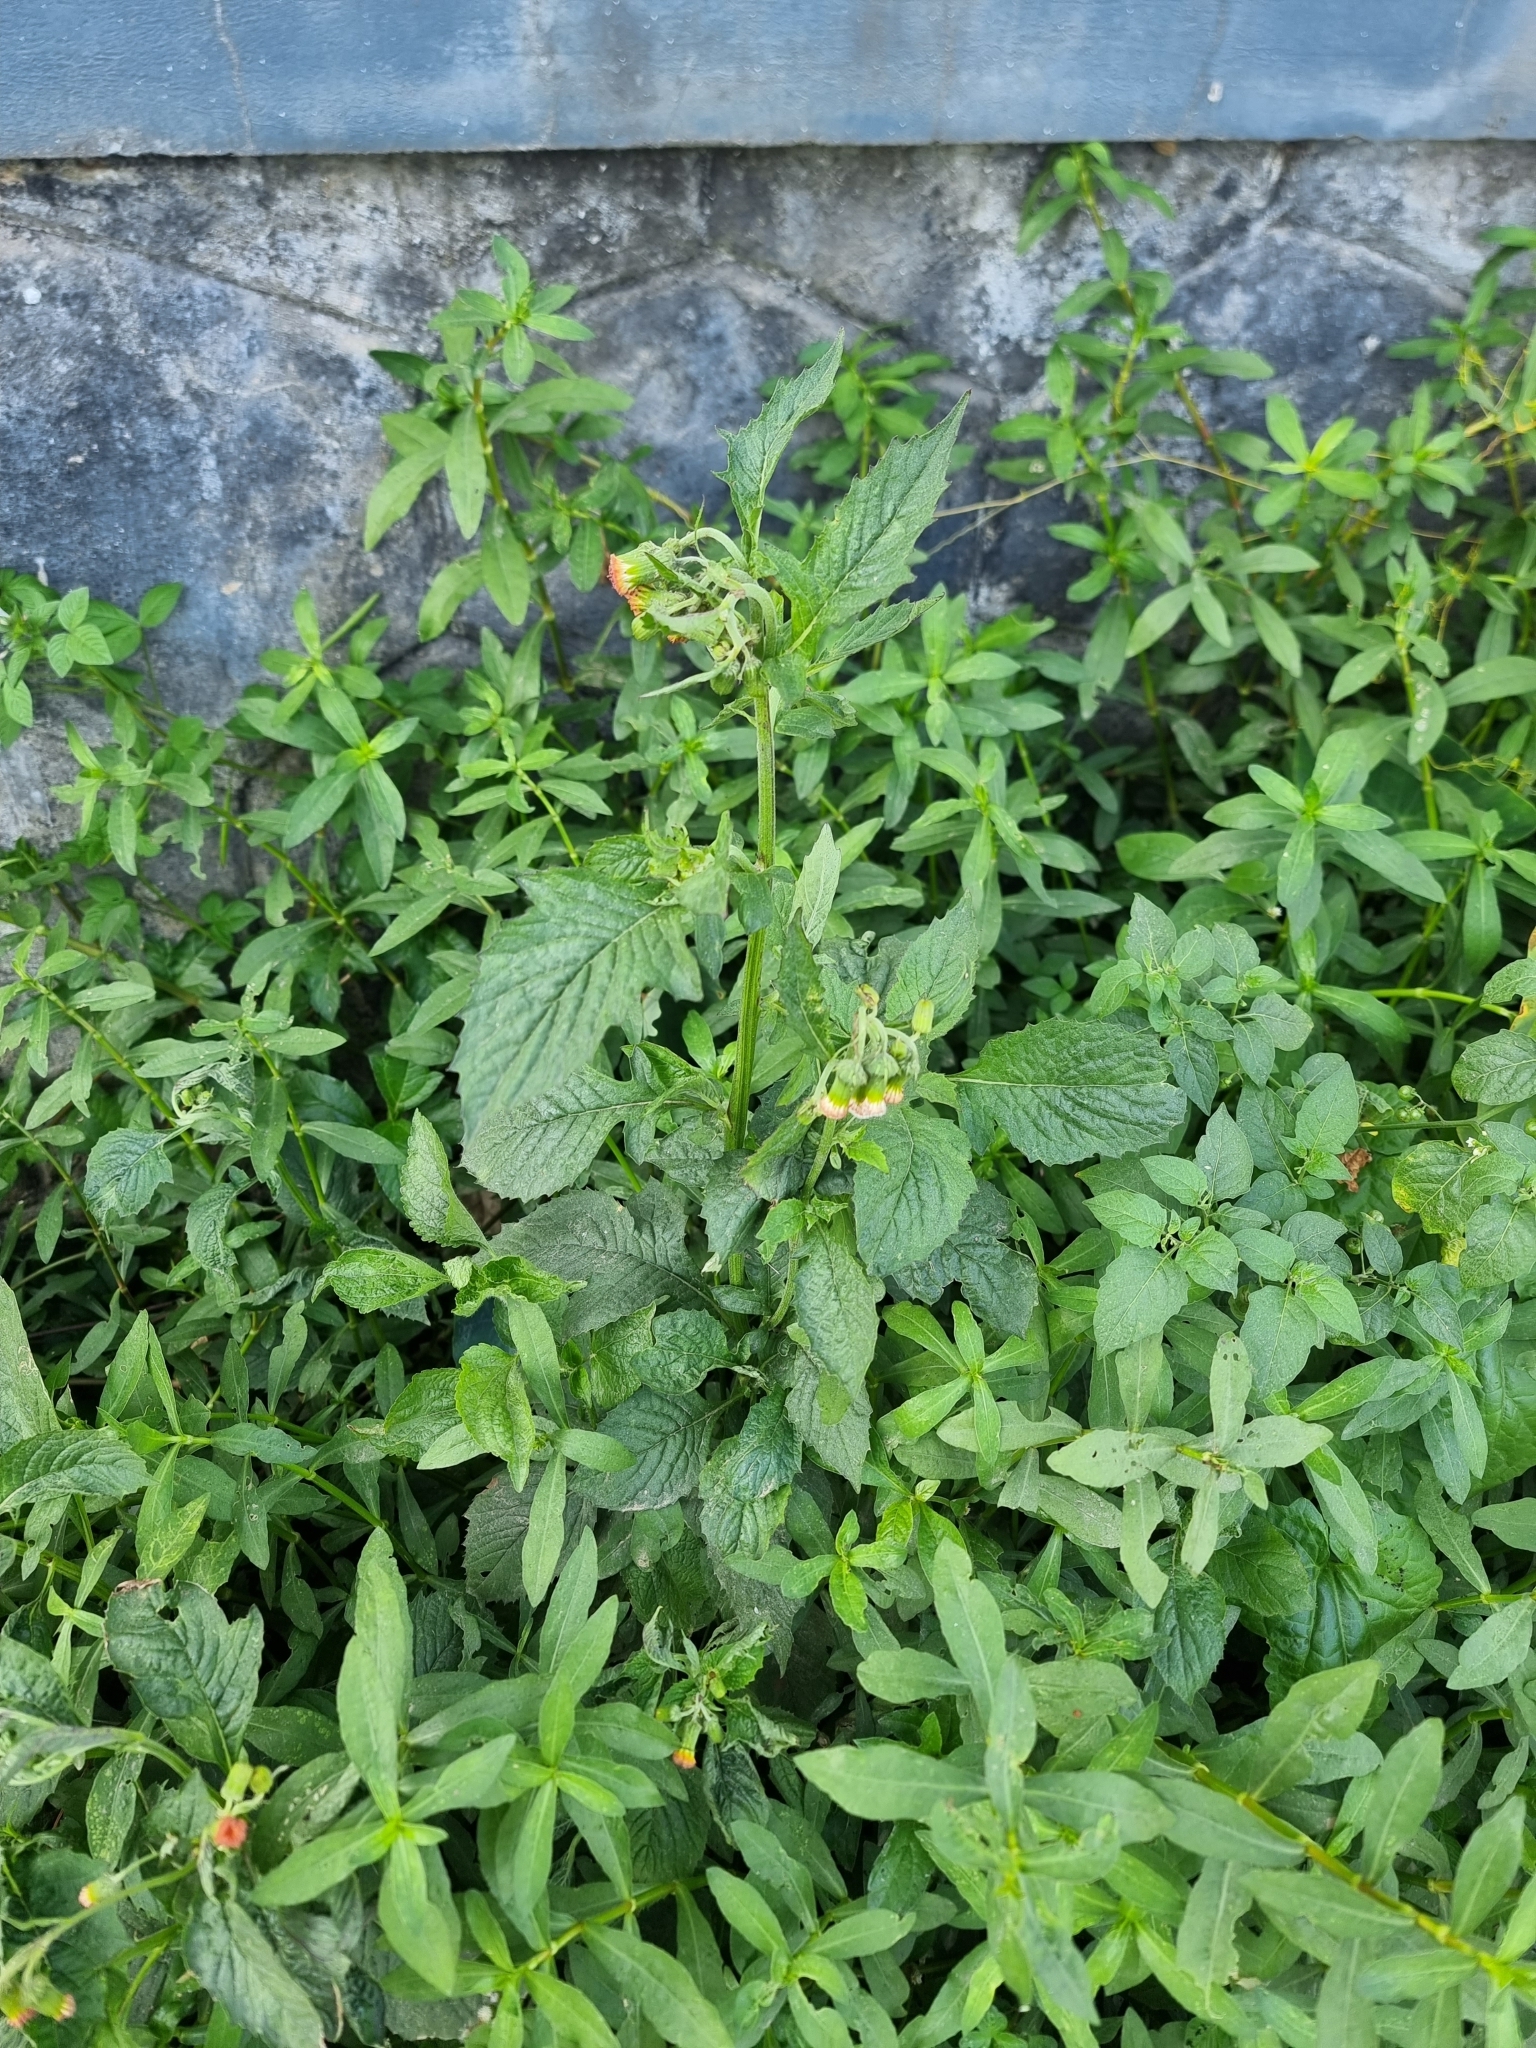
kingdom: Plantae
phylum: Tracheophyta
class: Magnoliopsida
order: Asterales
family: Asteraceae
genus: Crassocephalum
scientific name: Crassocephalum crepidioides
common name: Redflower ragleaf
